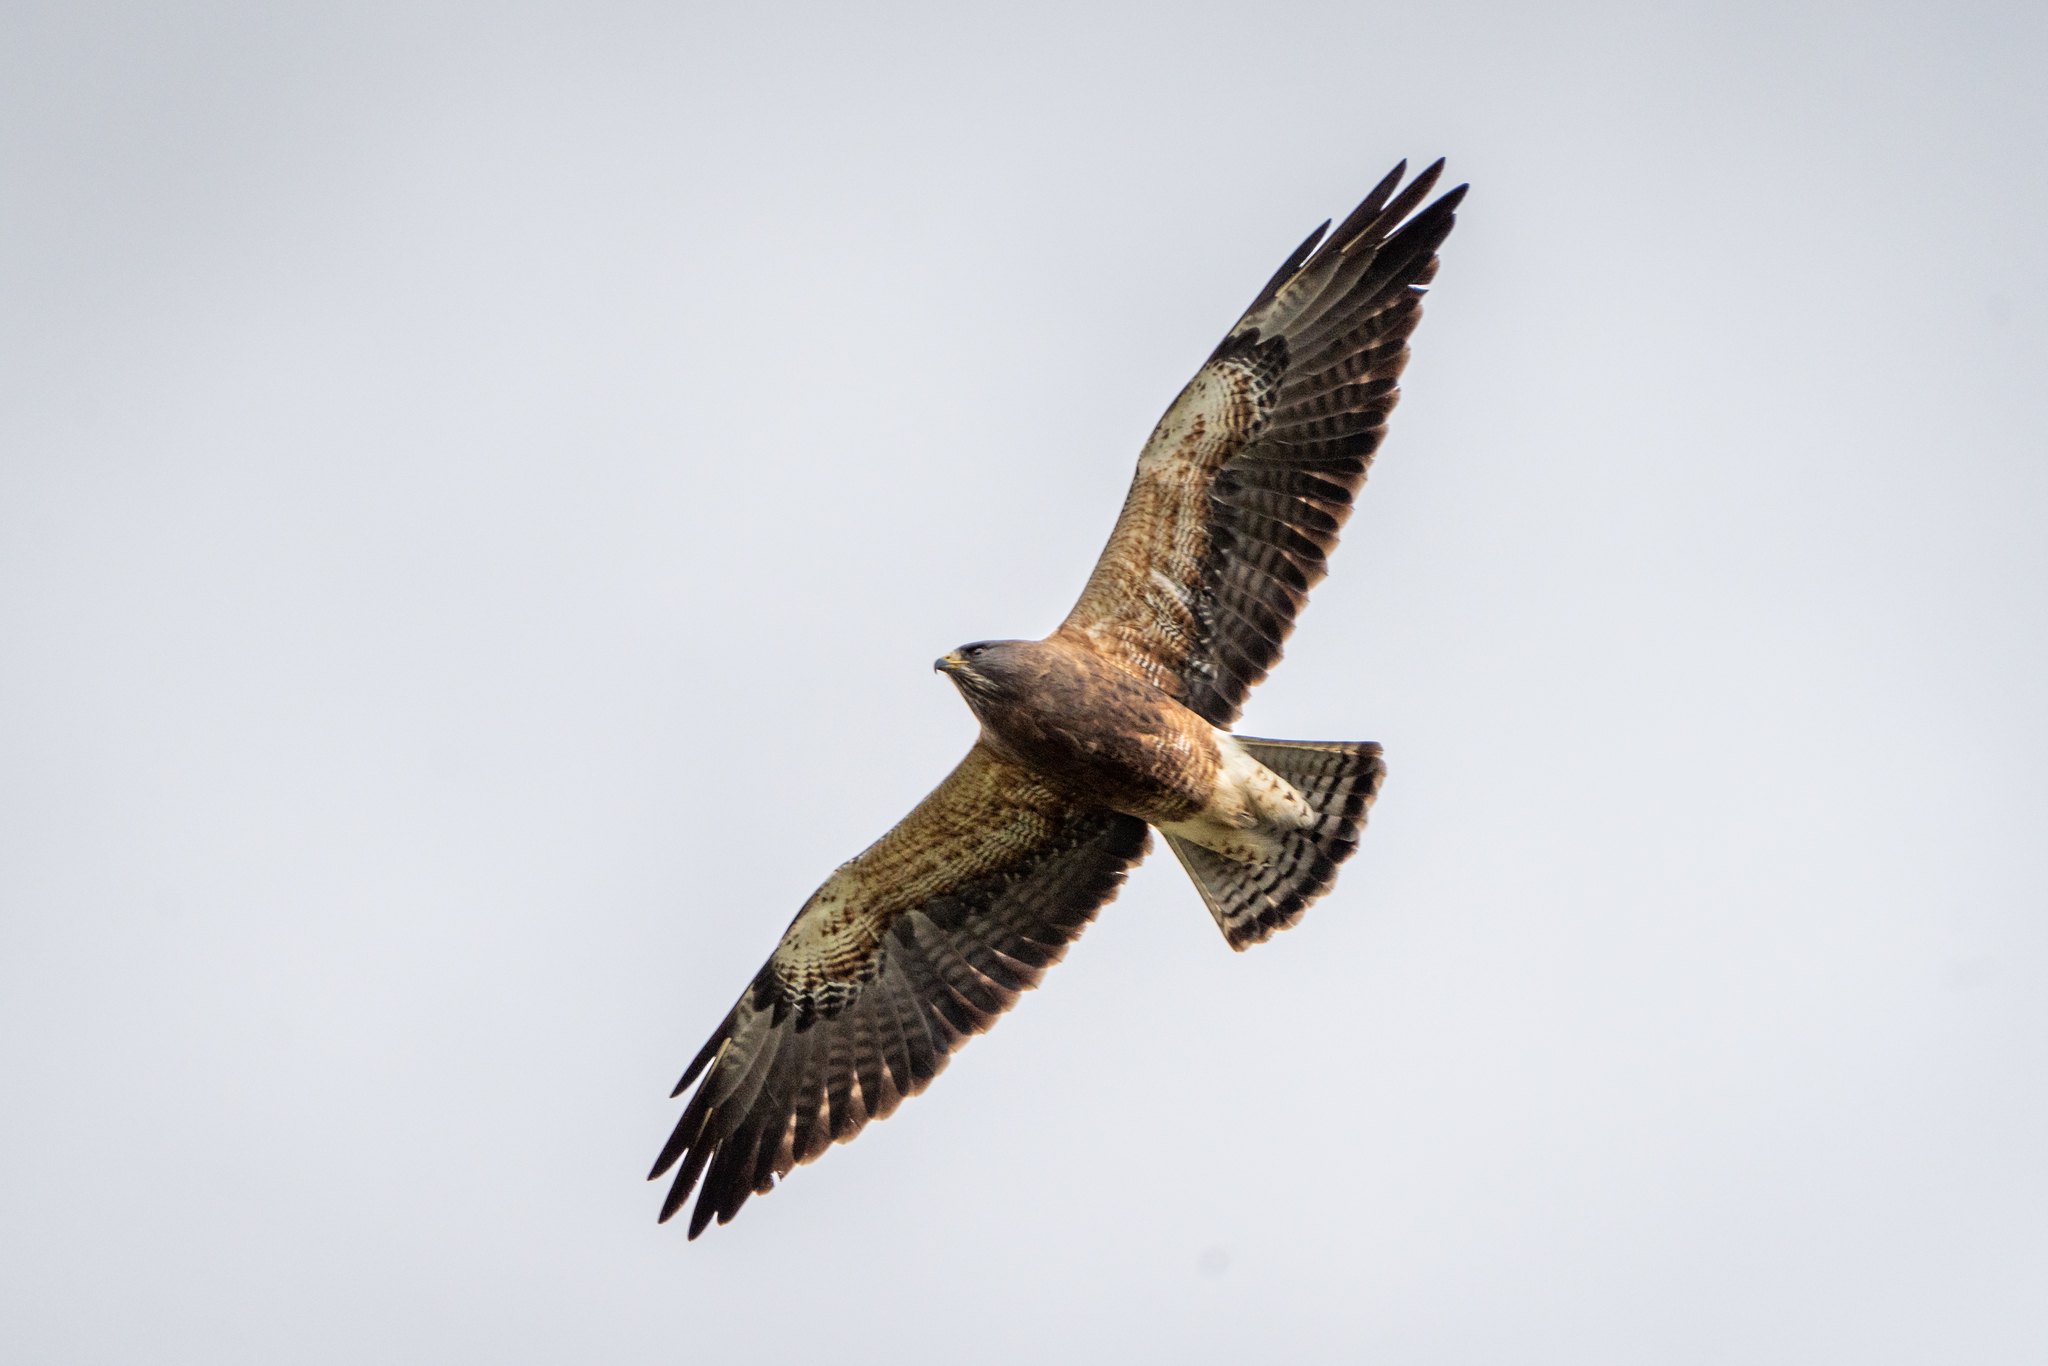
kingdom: Animalia
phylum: Chordata
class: Aves
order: Accipitriformes
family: Accipitridae
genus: Buteo
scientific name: Buteo swainsoni
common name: Swainson's hawk
